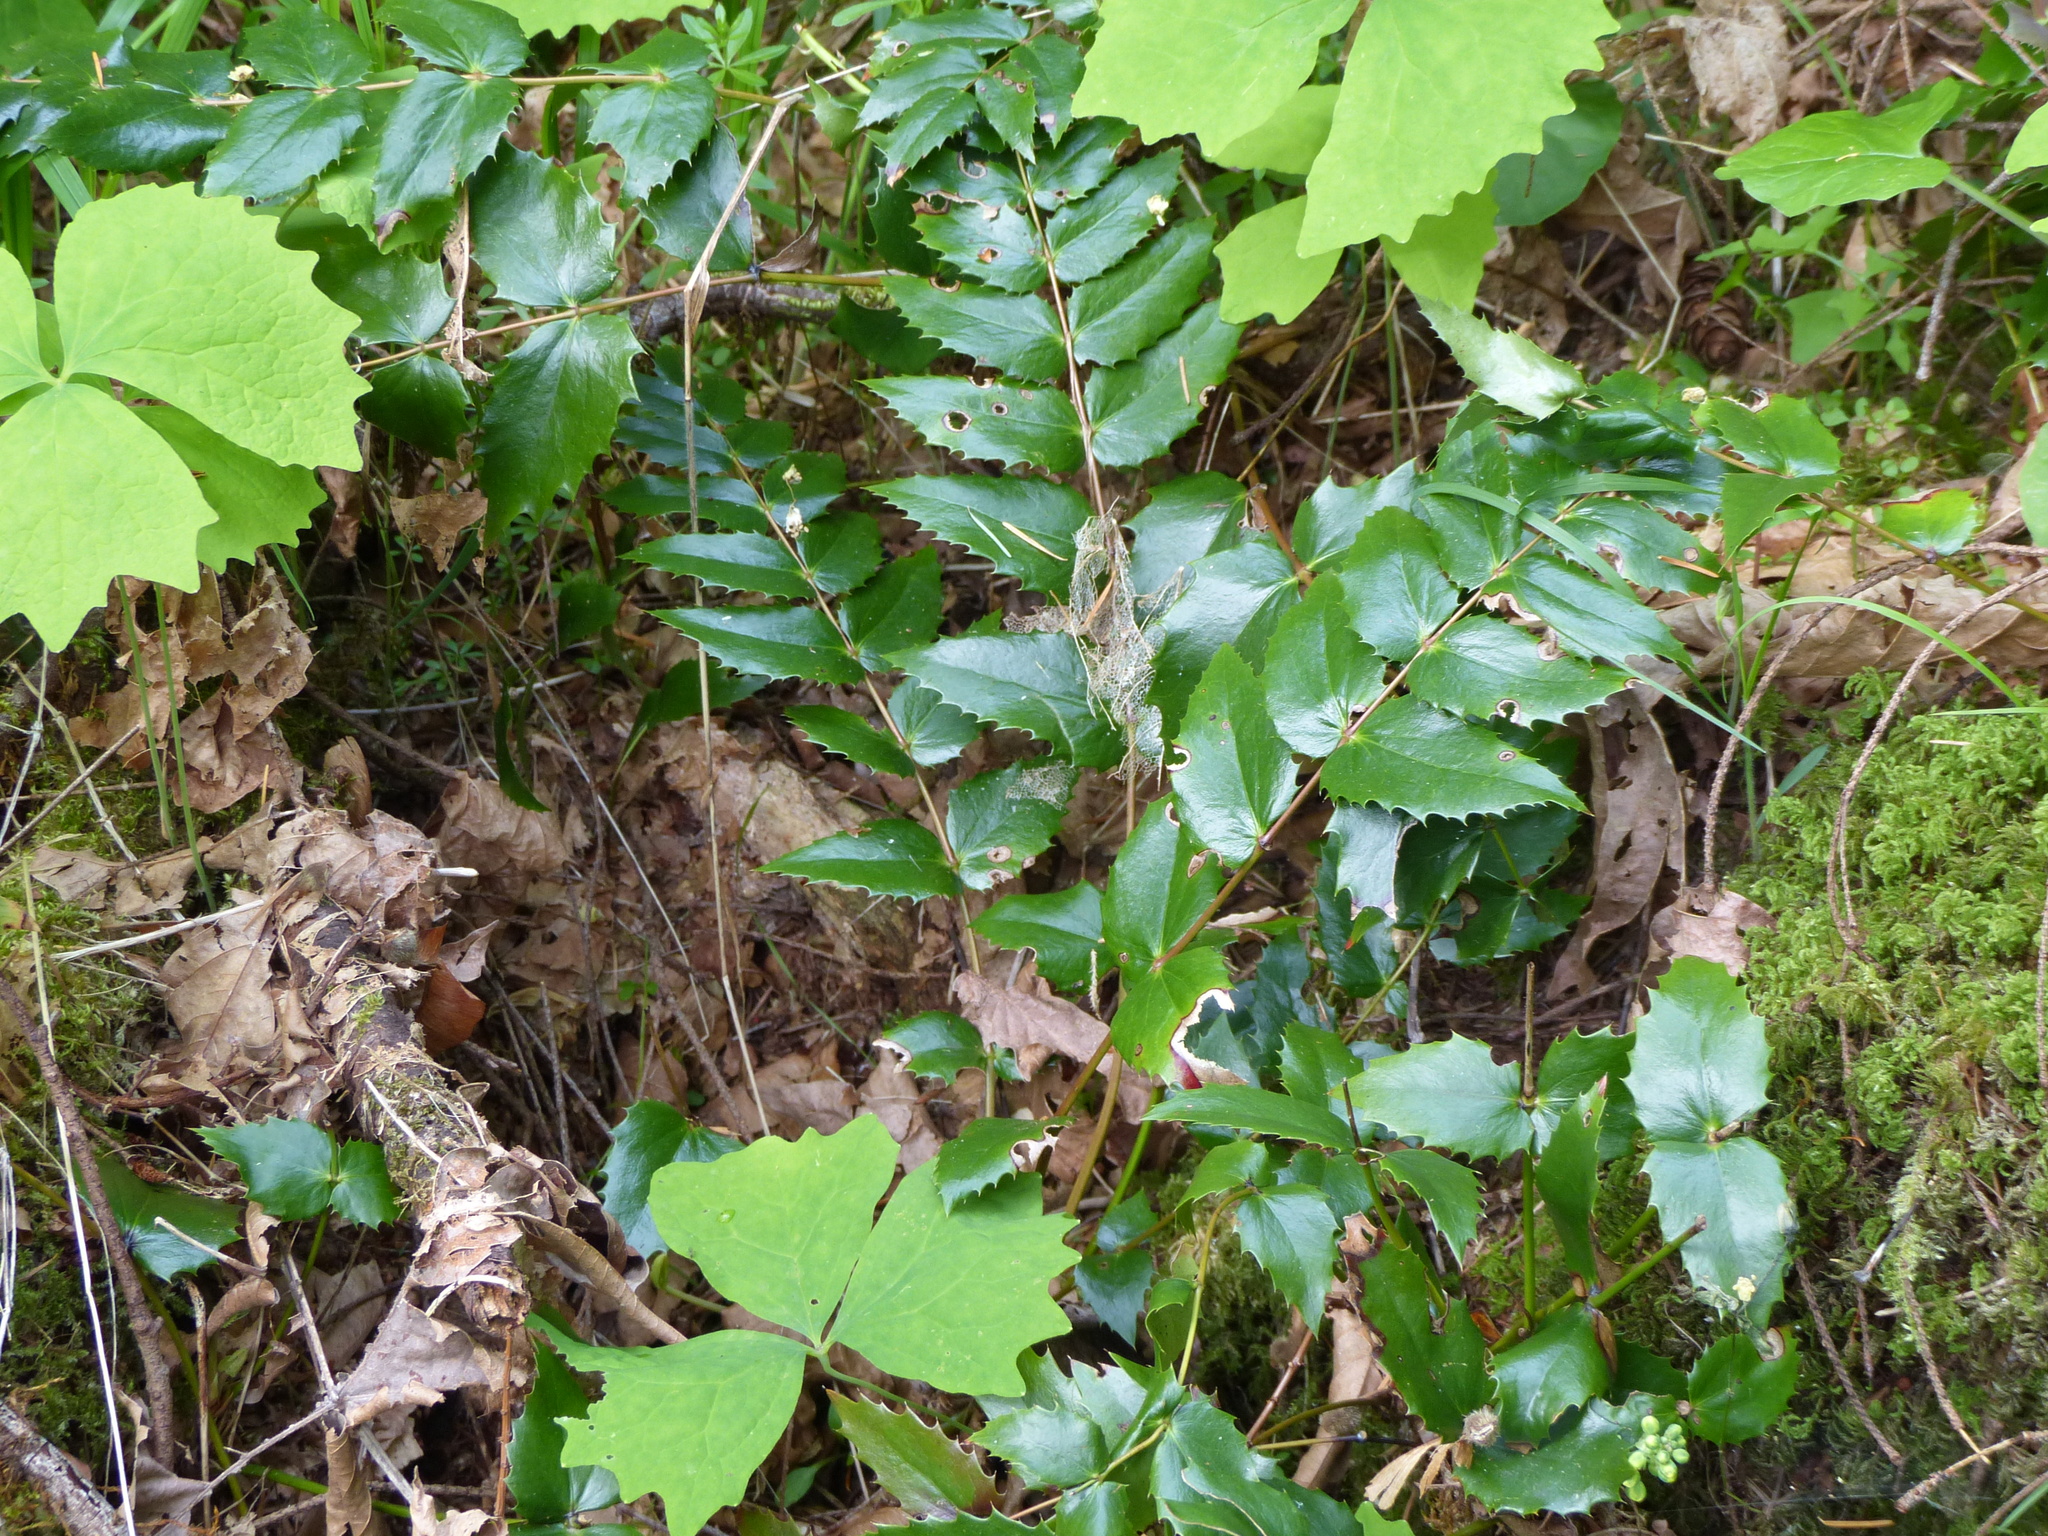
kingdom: Plantae
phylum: Tracheophyta
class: Magnoliopsida
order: Ranunculales
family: Berberidaceae
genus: Mahonia
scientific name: Mahonia nervosa
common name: Cascade oregon-grape
